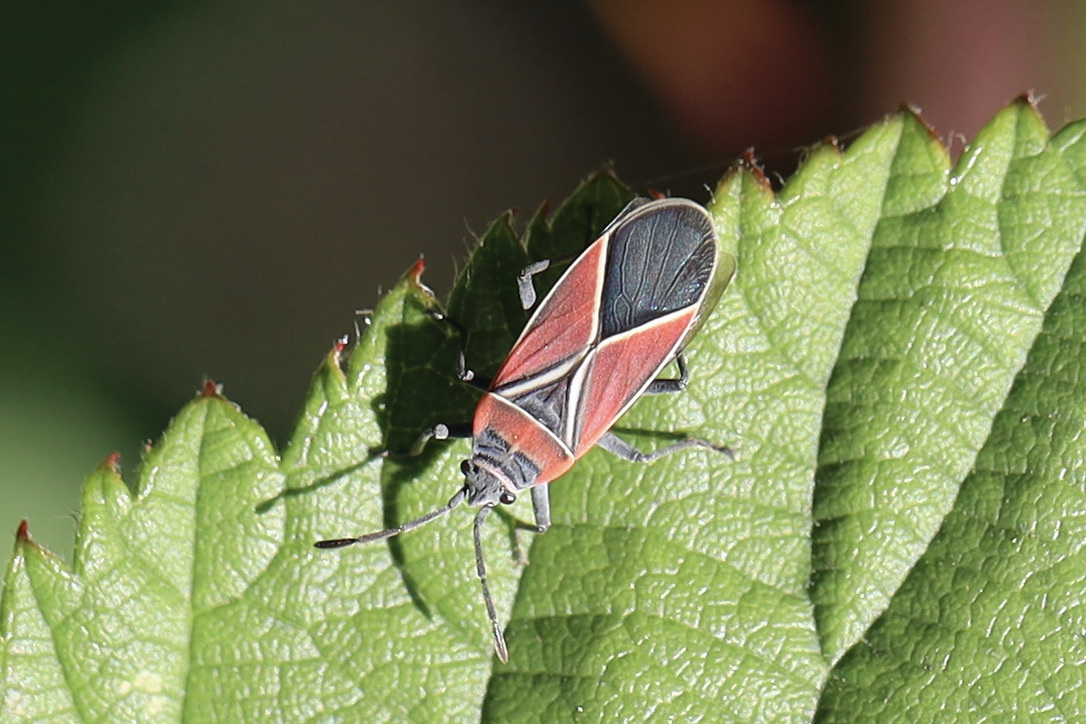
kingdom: Animalia
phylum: Arthropoda
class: Insecta
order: Hemiptera
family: Lygaeidae
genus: Neacoryphus
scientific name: Neacoryphus bicrucis
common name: Lygaeid bug
